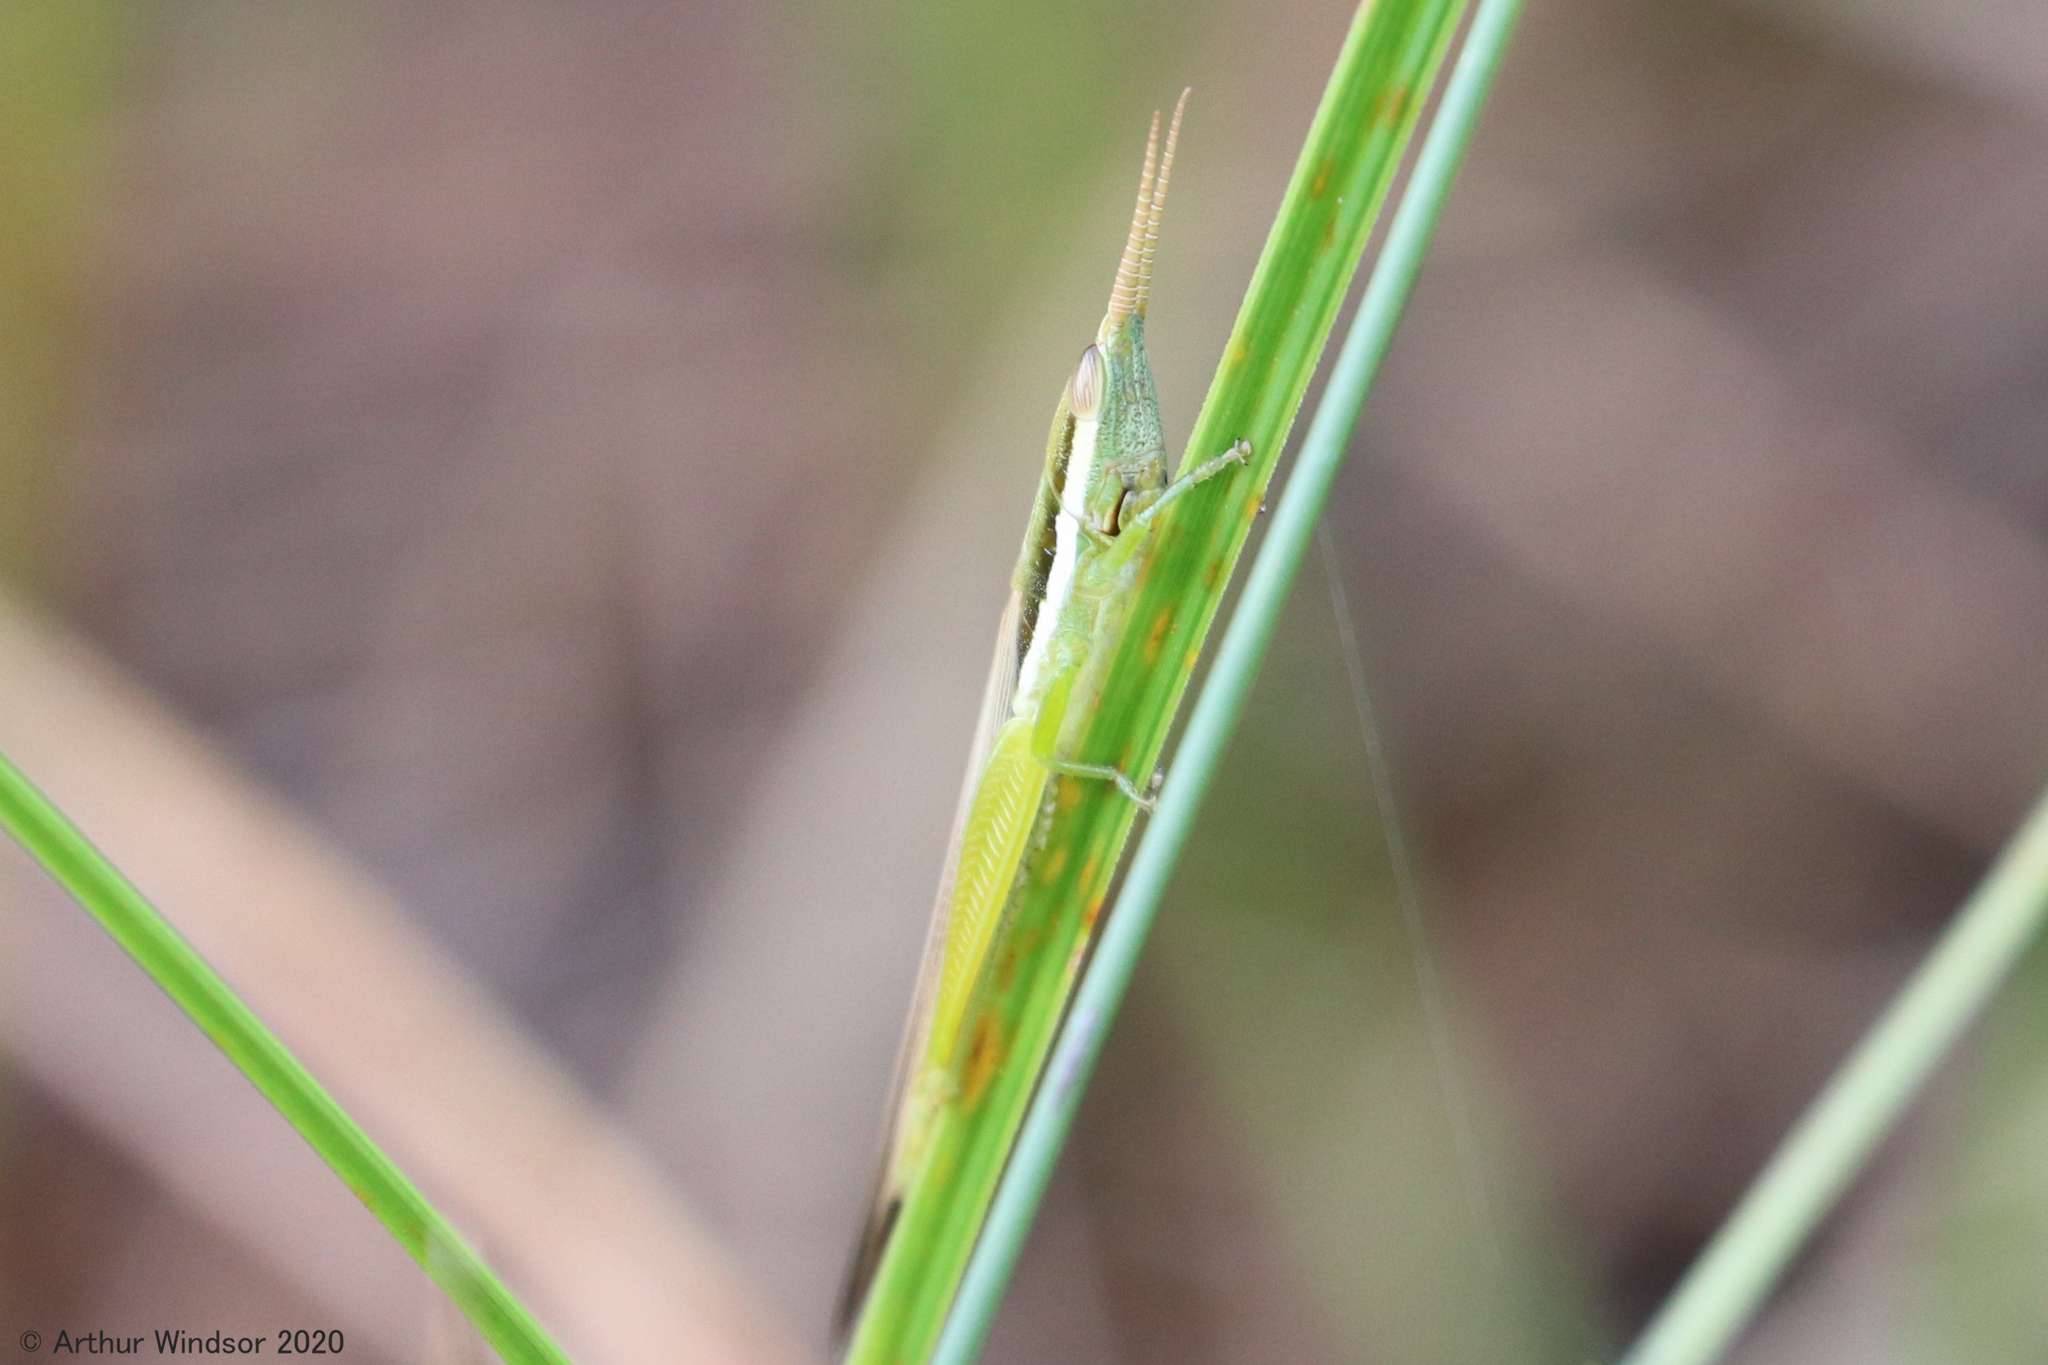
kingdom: Animalia
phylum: Arthropoda
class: Insecta
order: Orthoptera
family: Acrididae
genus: Leptysma
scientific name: Leptysma marginicollis
